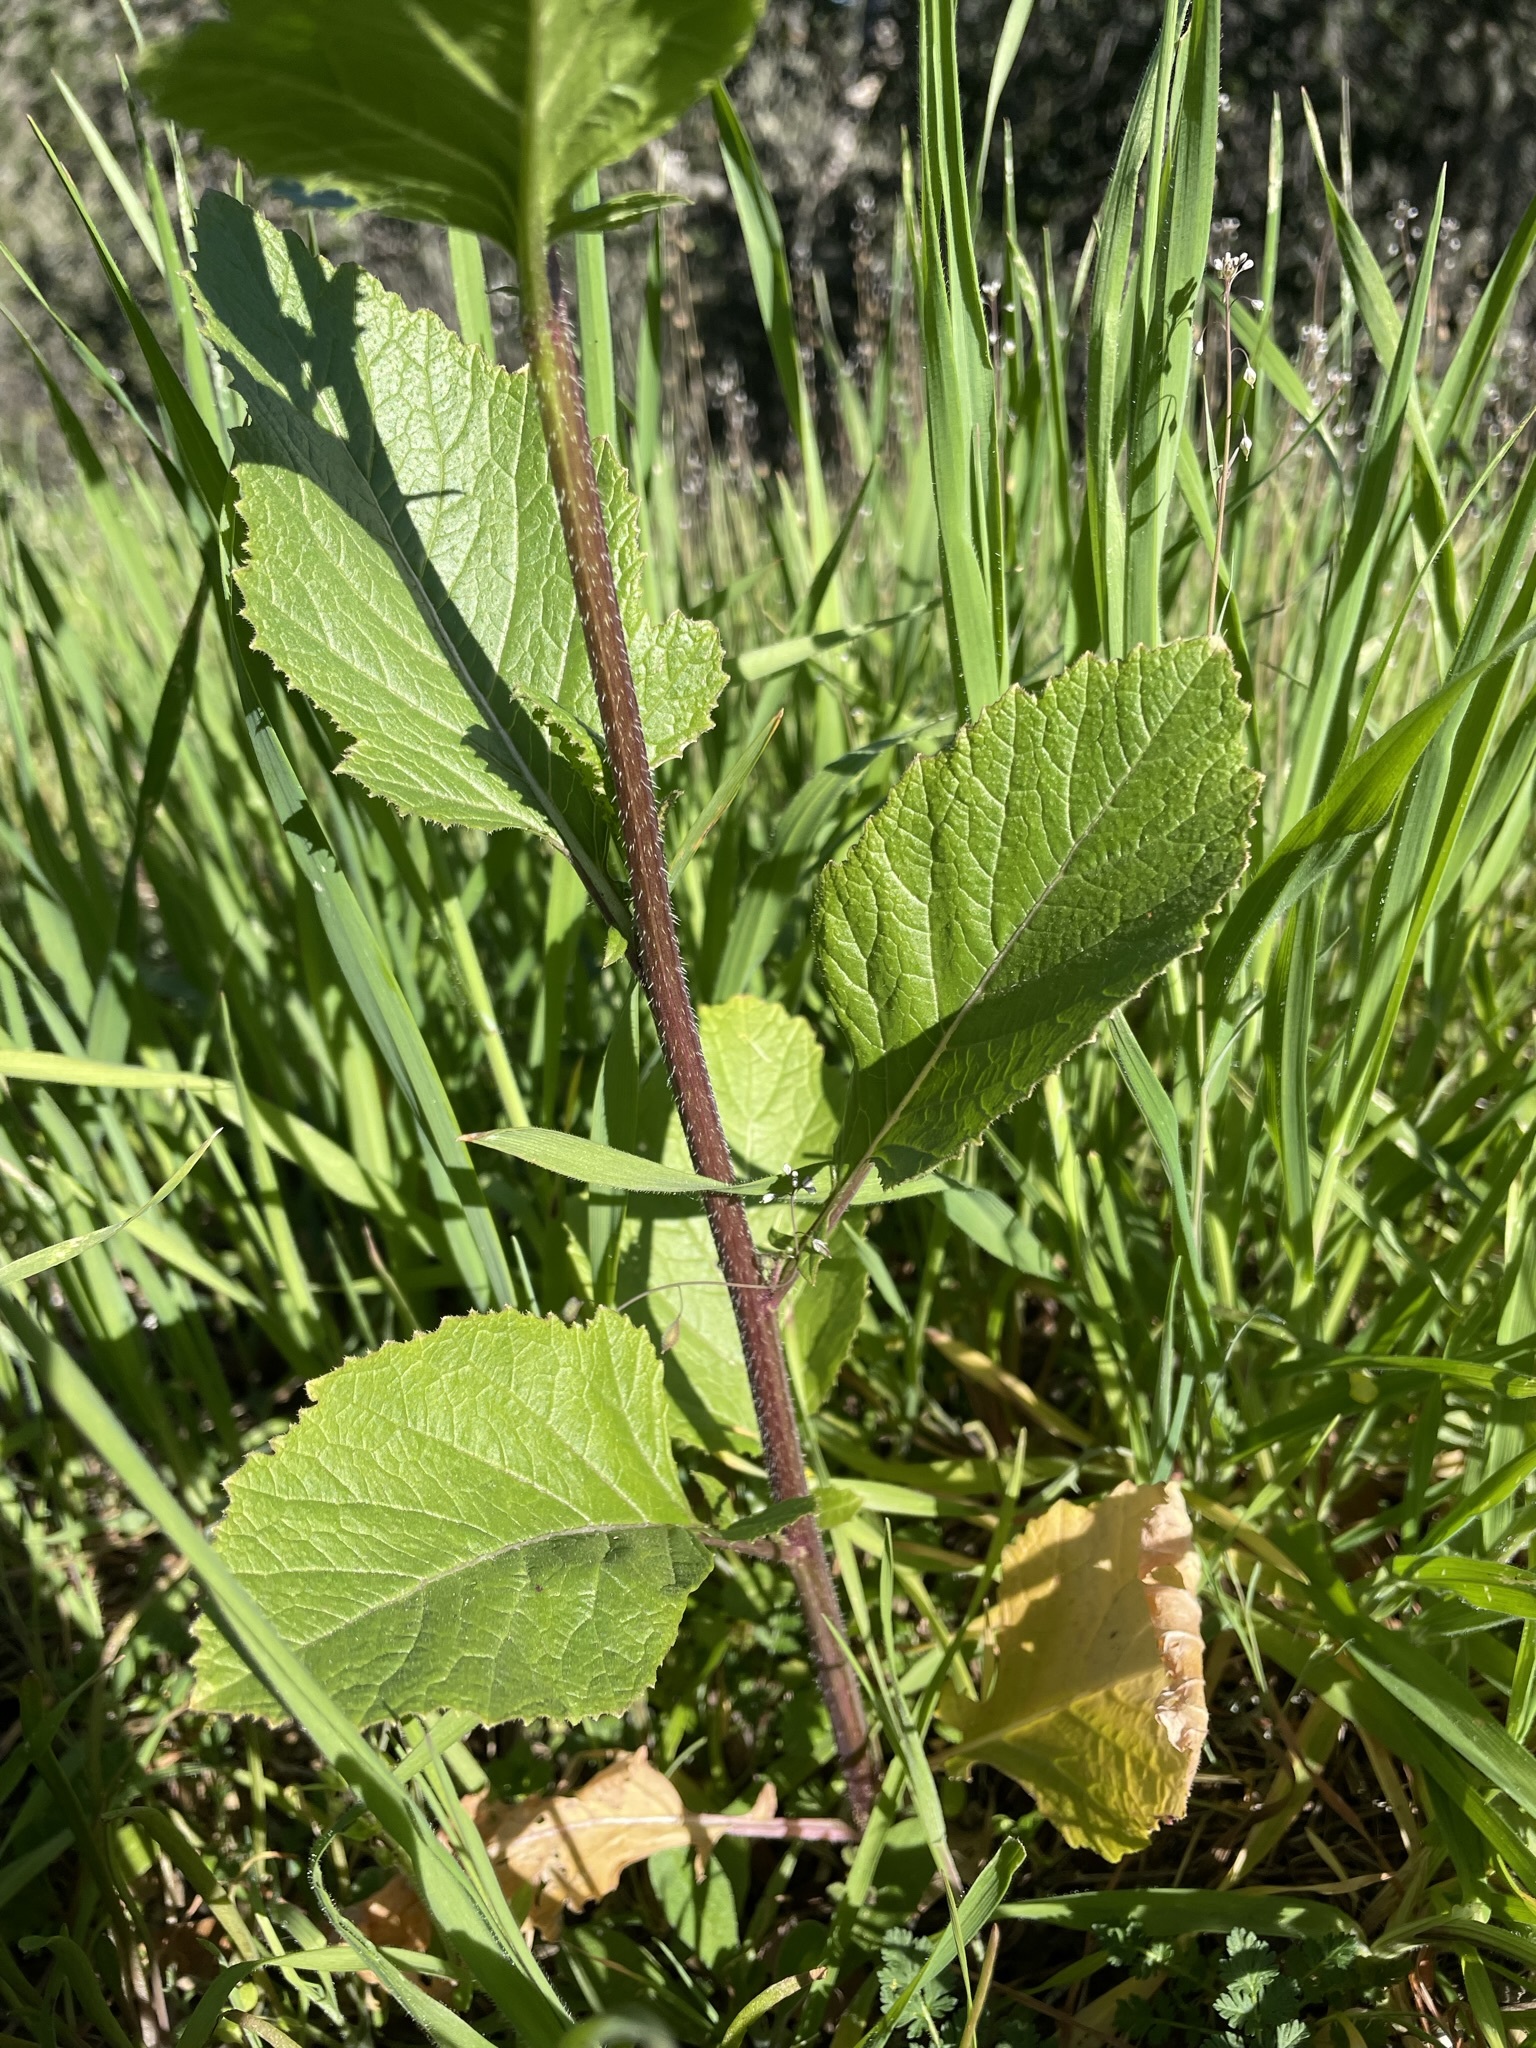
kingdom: Plantae
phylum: Tracheophyta
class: Magnoliopsida
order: Brassicales
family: Brassicaceae
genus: Brassica
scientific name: Brassica nigra
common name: Black mustard
